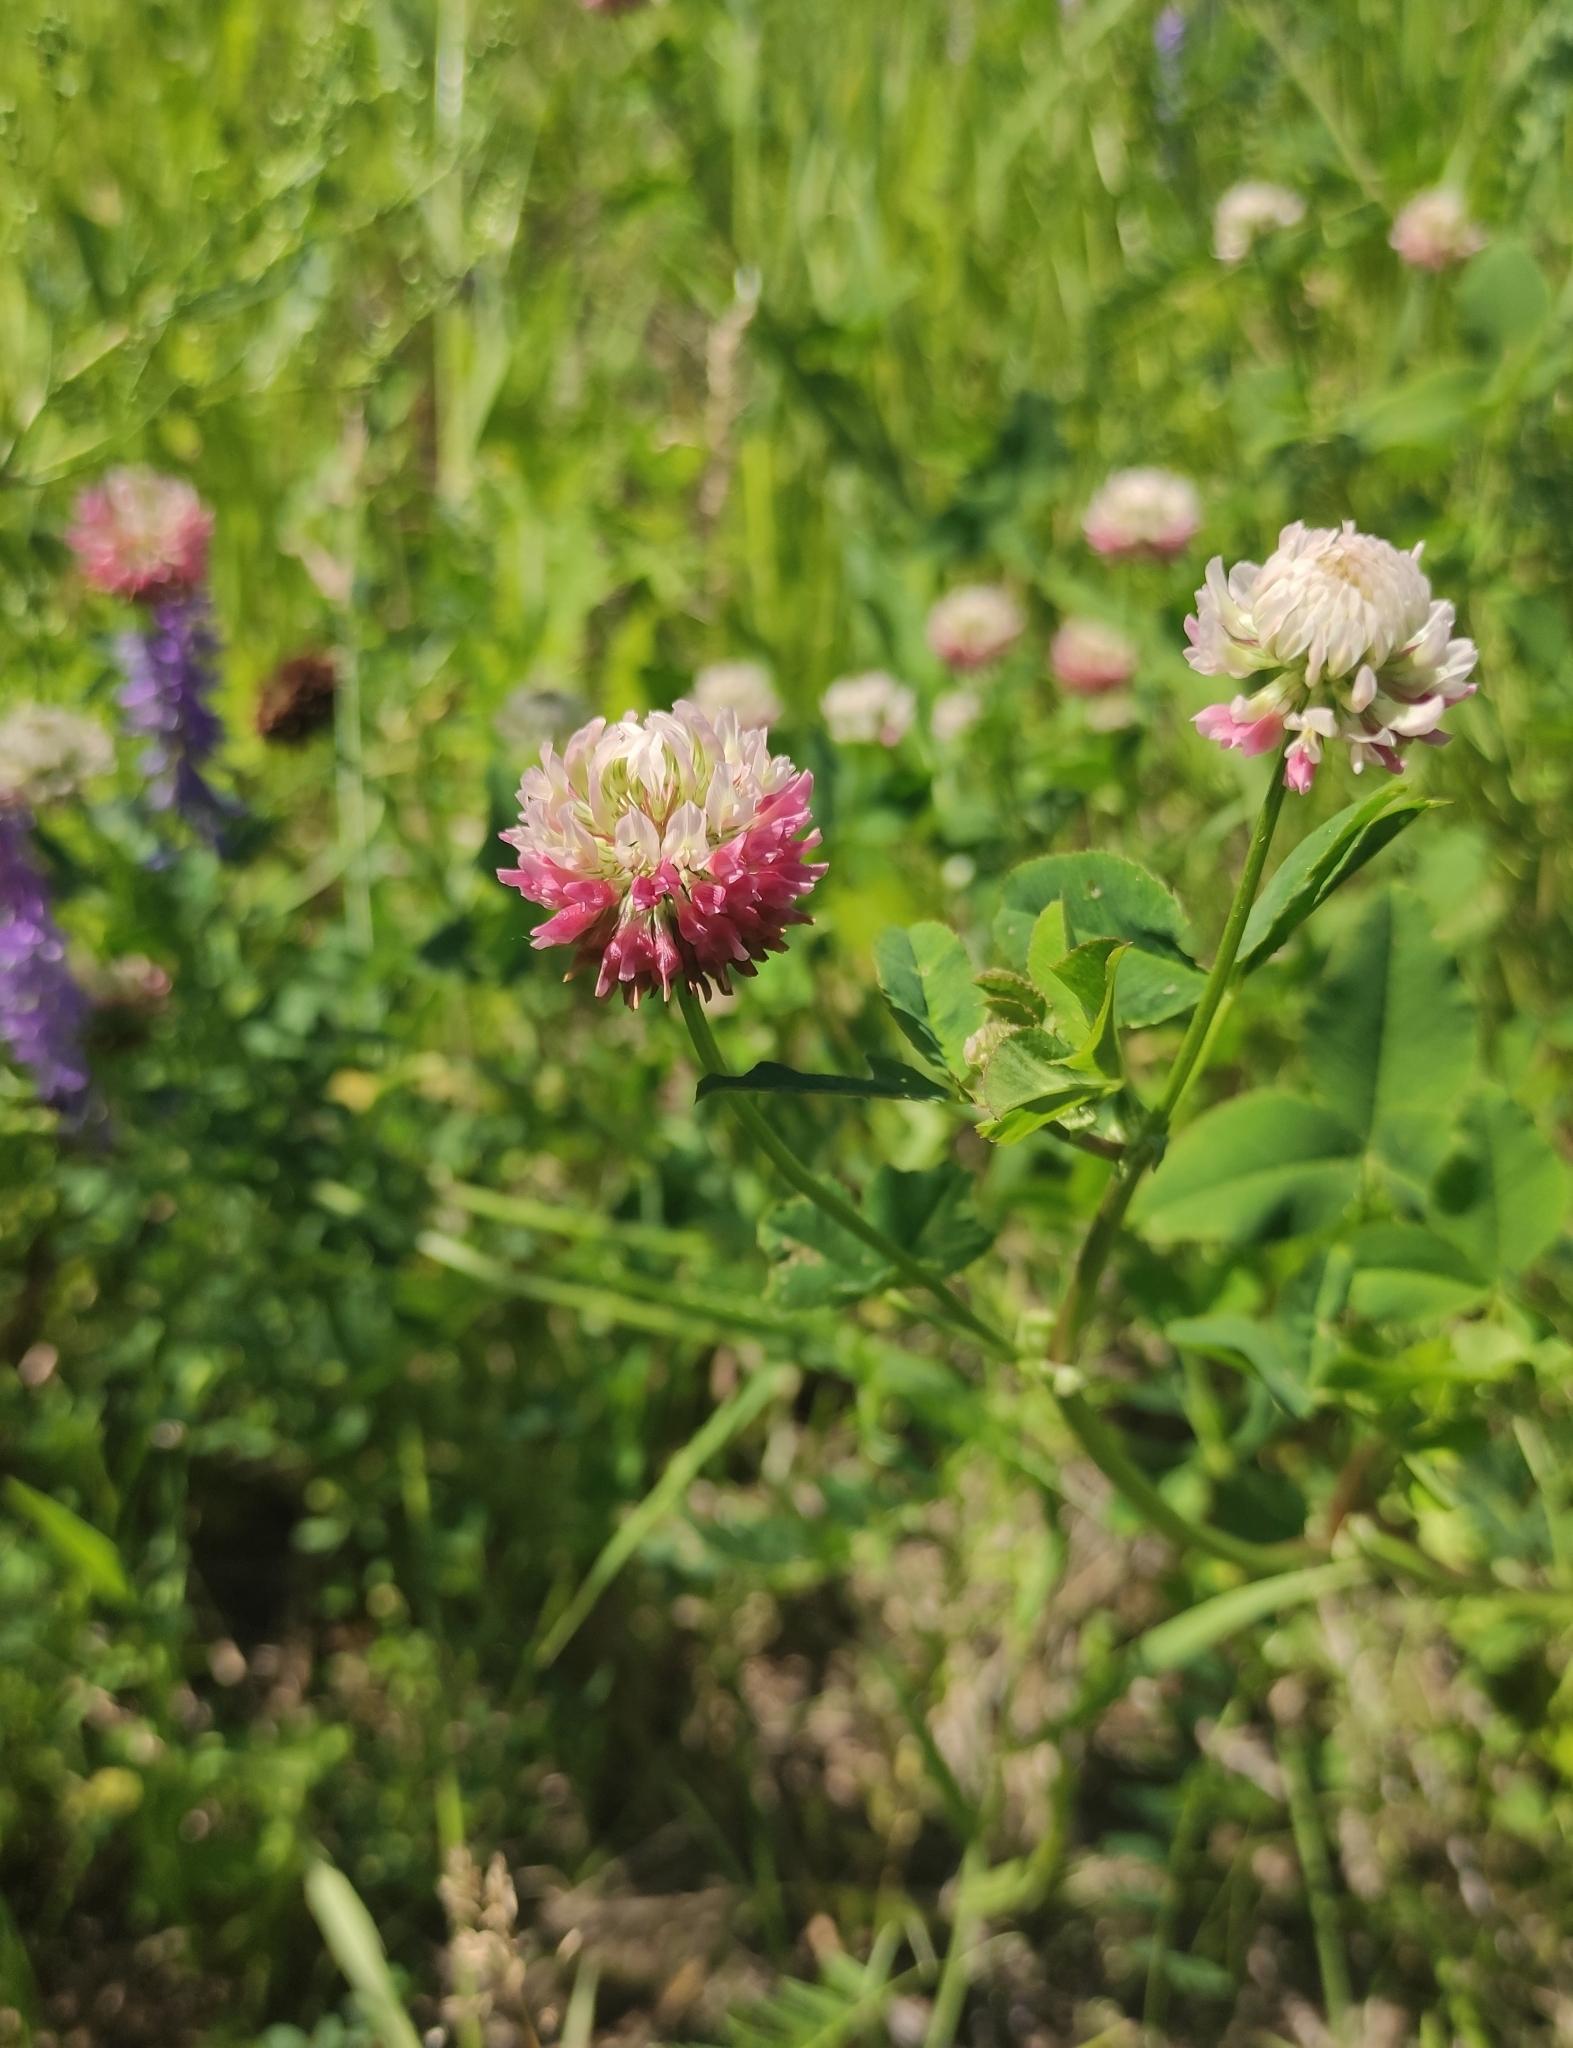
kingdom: Plantae
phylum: Tracheophyta
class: Magnoliopsida
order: Fabales
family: Fabaceae
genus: Trifolium
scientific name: Trifolium hybridum
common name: Alsike clover
